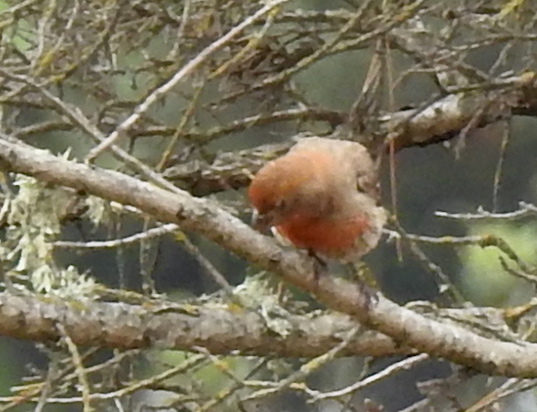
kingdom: Animalia
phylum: Chordata
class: Aves
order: Passeriformes
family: Fringillidae
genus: Haemorhous
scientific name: Haemorhous mexicanus
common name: House finch
